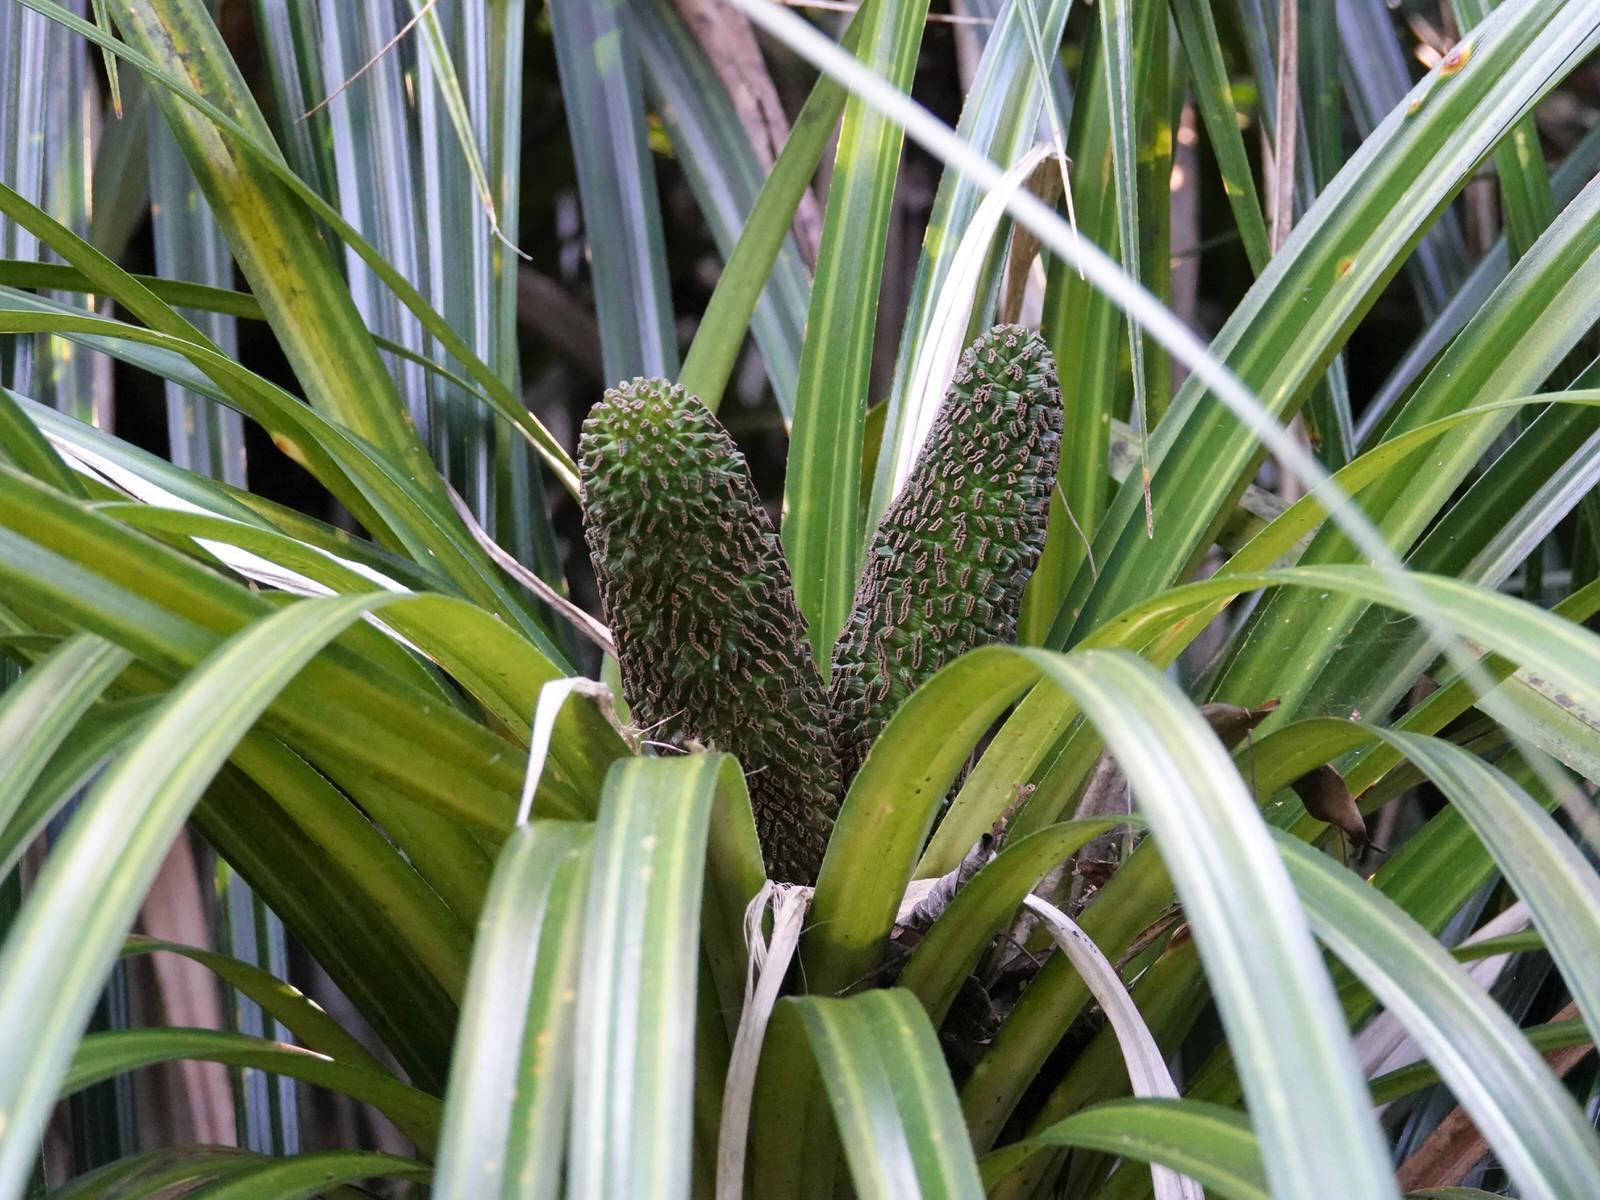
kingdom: Plantae
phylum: Tracheophyta
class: Liliopsida
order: Pandanales
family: Pandanaceae
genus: Freycinetia
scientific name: Freycinetia banksii
